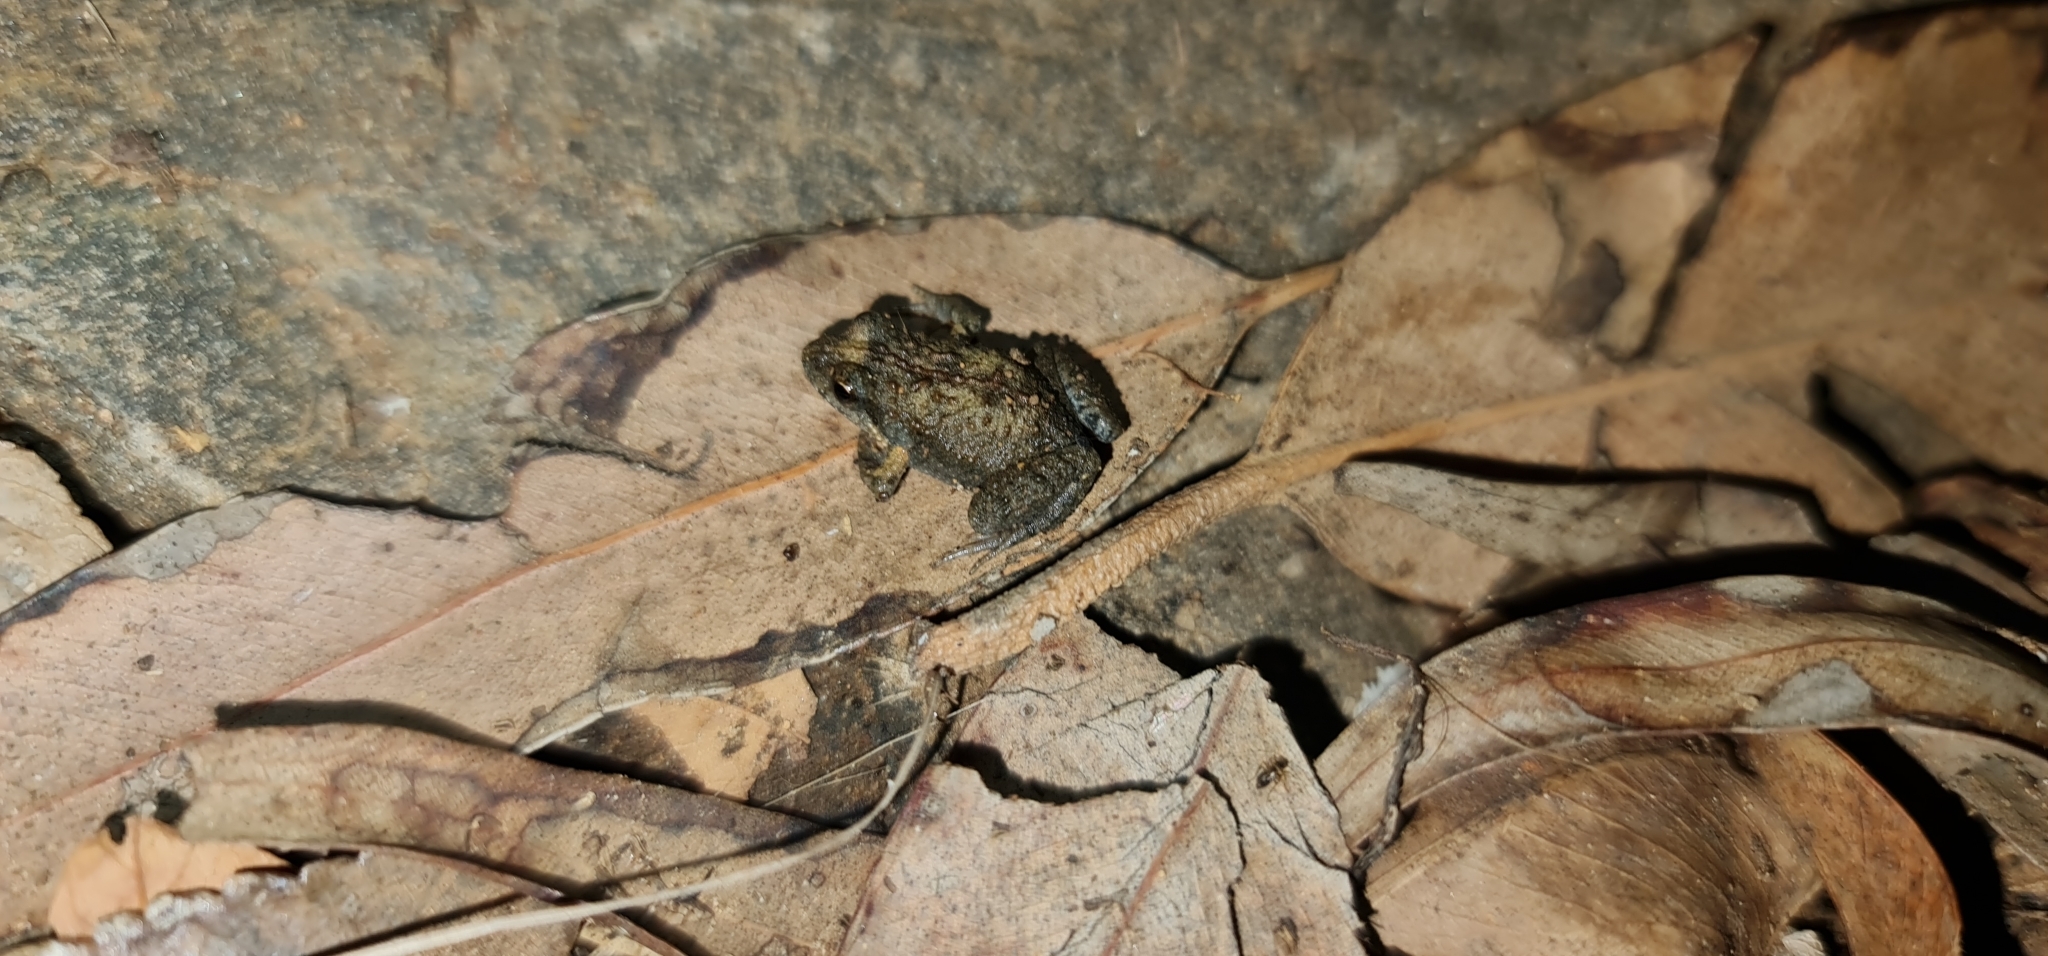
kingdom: Animalia
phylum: Chordata
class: Amphibia
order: Anura
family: Myobatrachidae
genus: Crinia
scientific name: Crinia signifera
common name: Brown froglet
